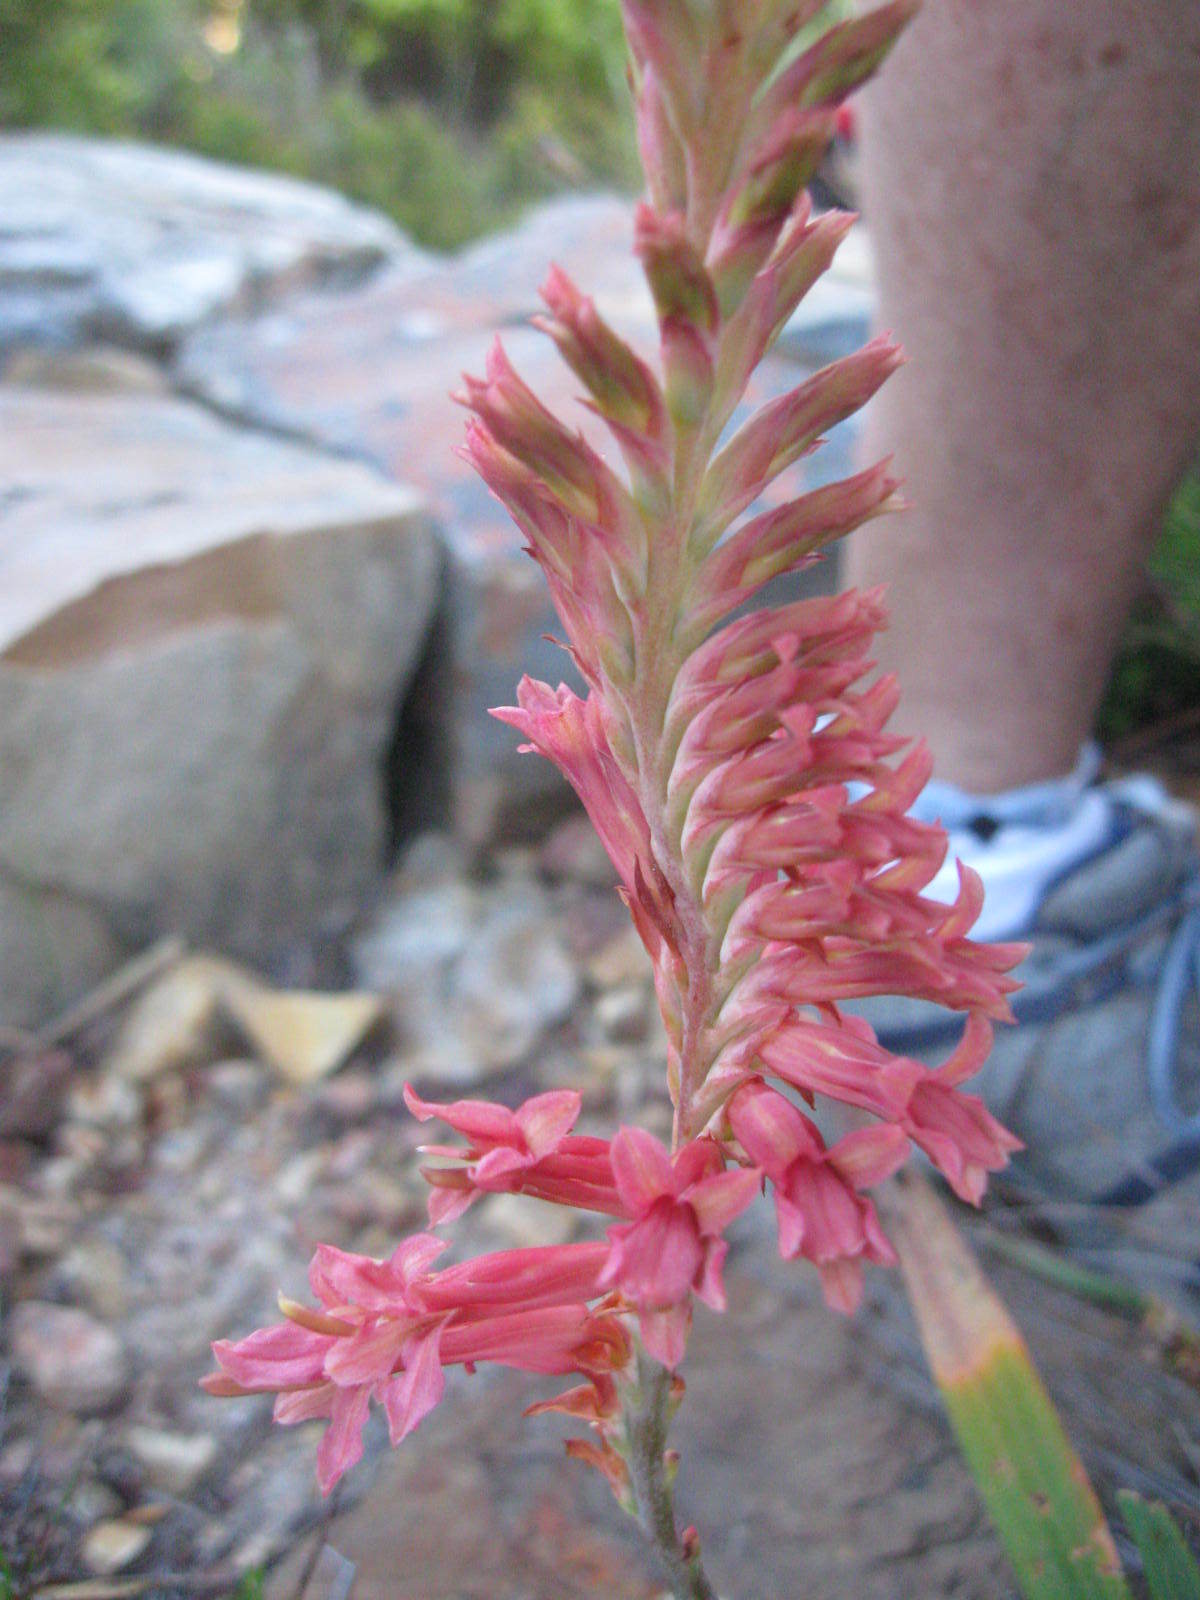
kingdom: Plantae
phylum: Tracheophyta
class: Liliopsida
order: Asparagales
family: Iridaceae
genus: Tritoniopsis
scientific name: Tritoniopsis antholyza
